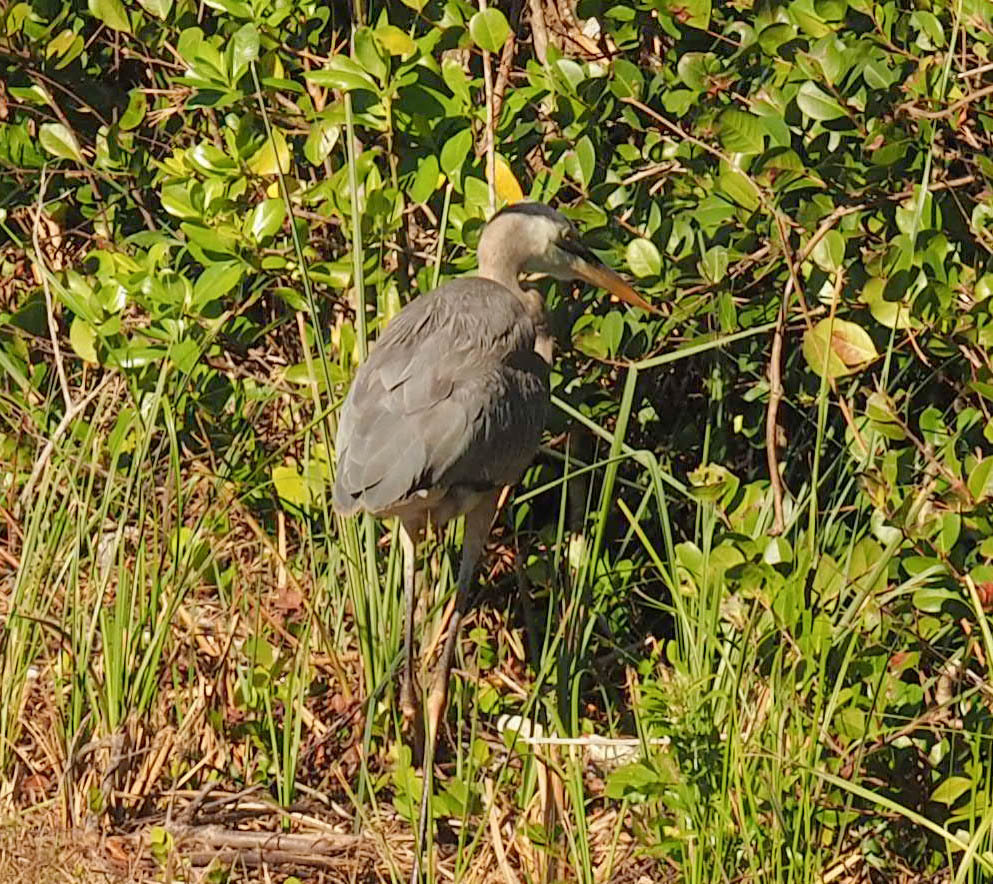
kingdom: Animalia
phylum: Chordata
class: Aves
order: Pelecaniformes
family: Ardeidae
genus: Ardea
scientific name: Ardea herodias
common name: Great blue heron
